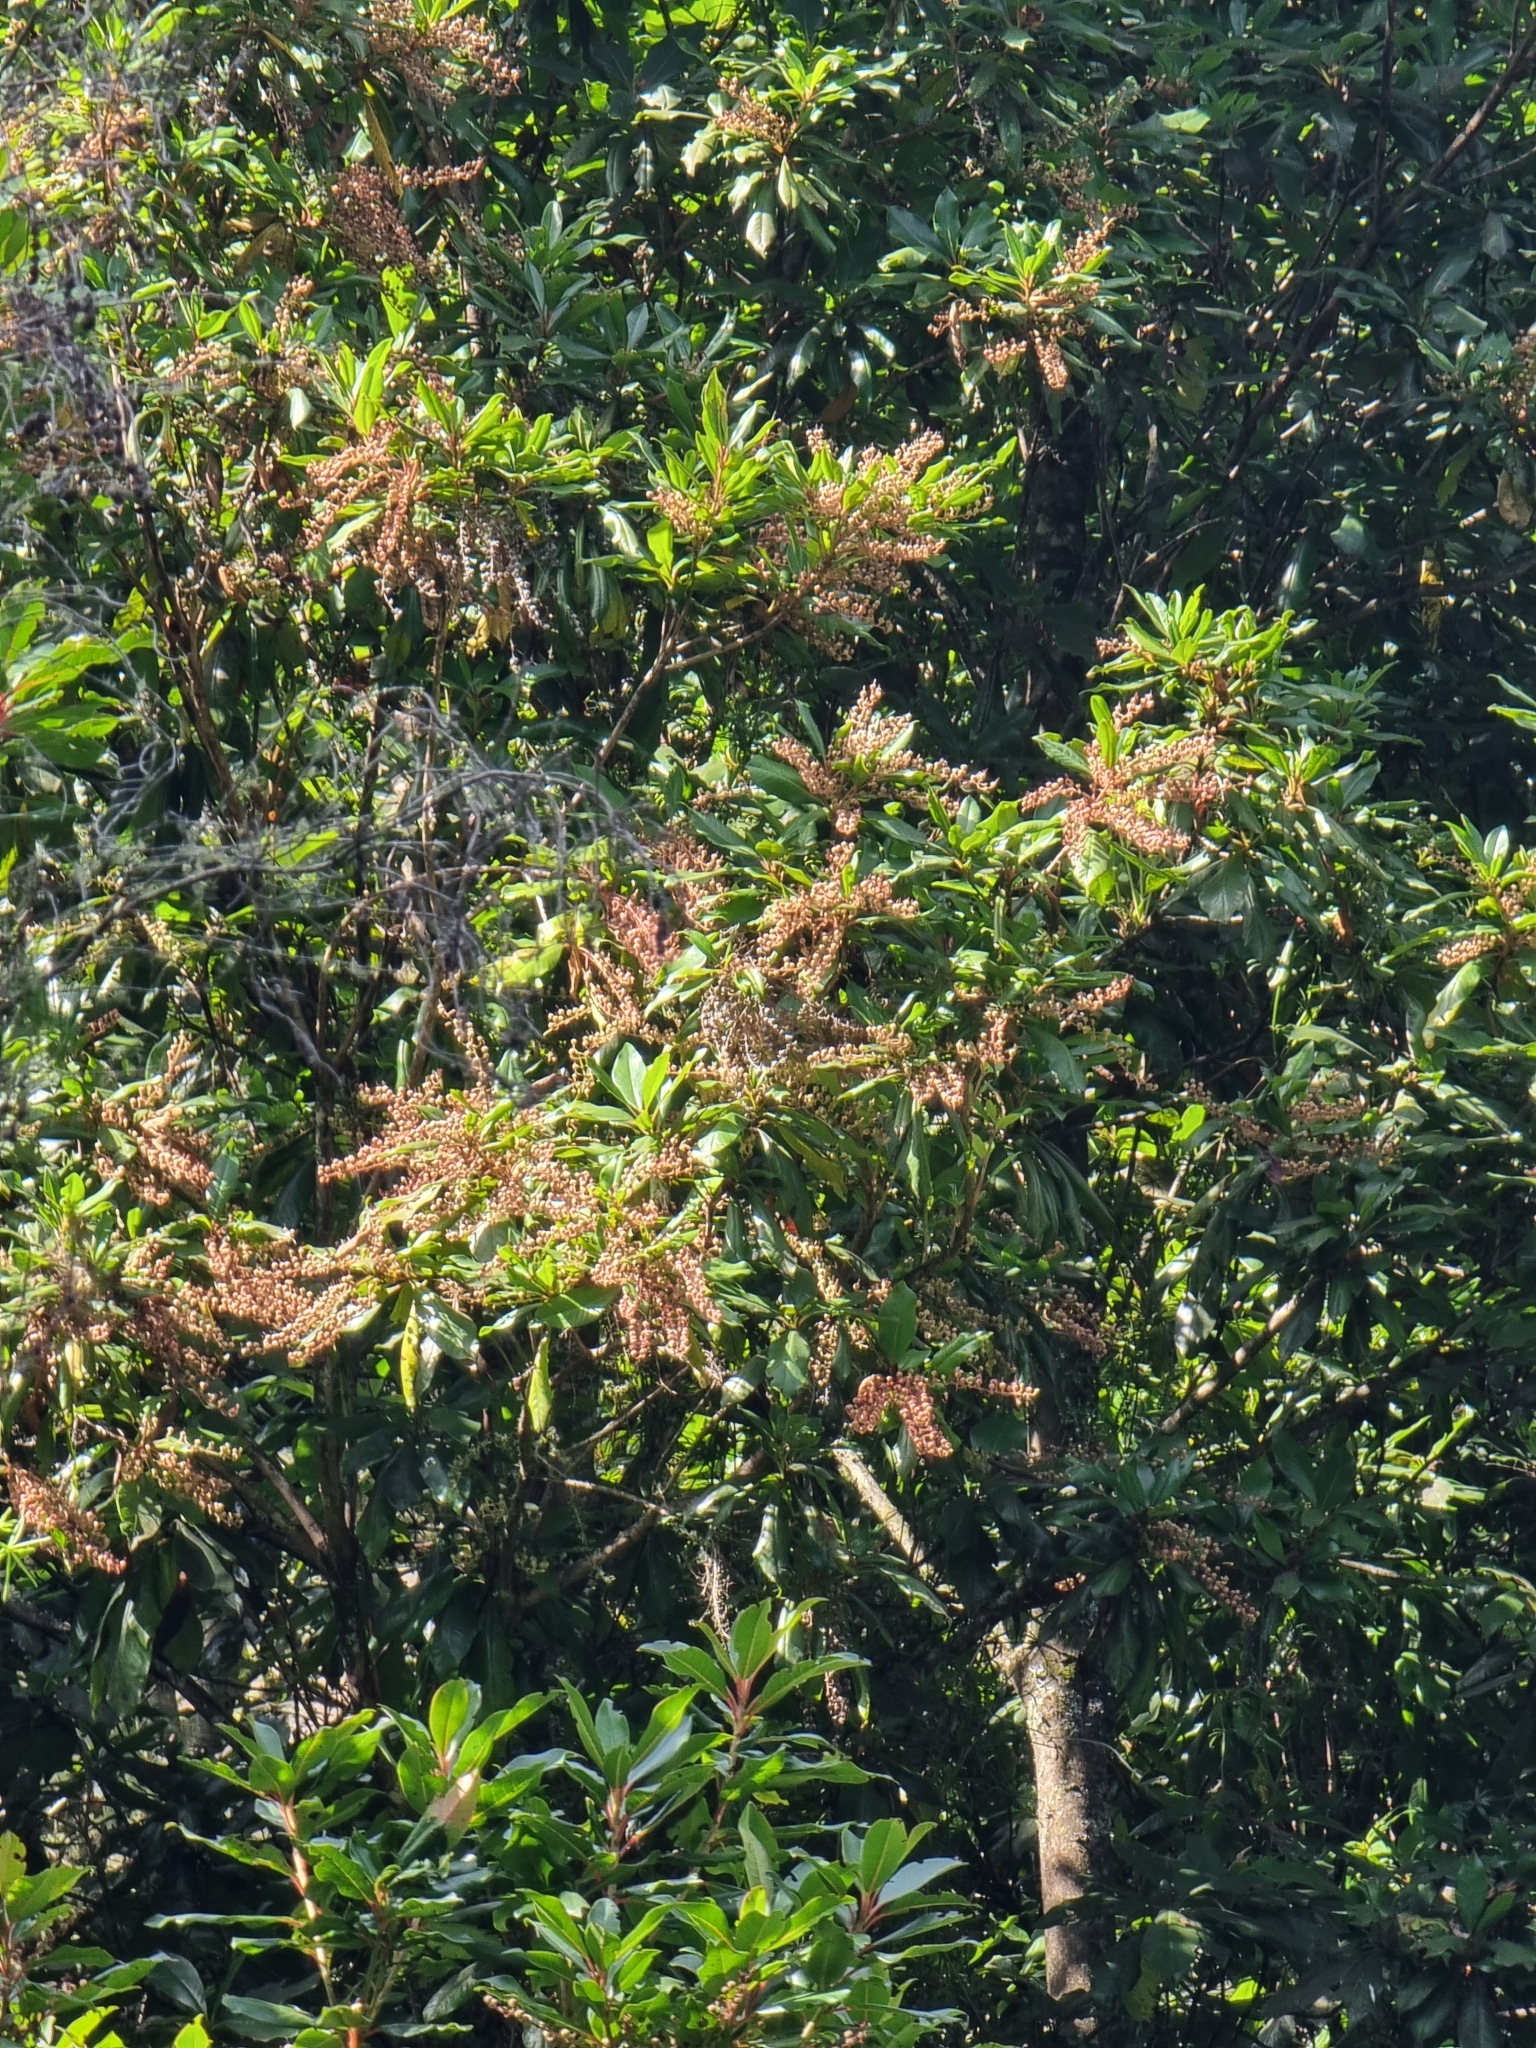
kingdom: Plantae
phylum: Tracheophyta
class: Magnoliopsida
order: Ericales
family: Clethraceae
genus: Clethra
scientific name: Clethra arborea
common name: Lily-of-the-valley-tree
